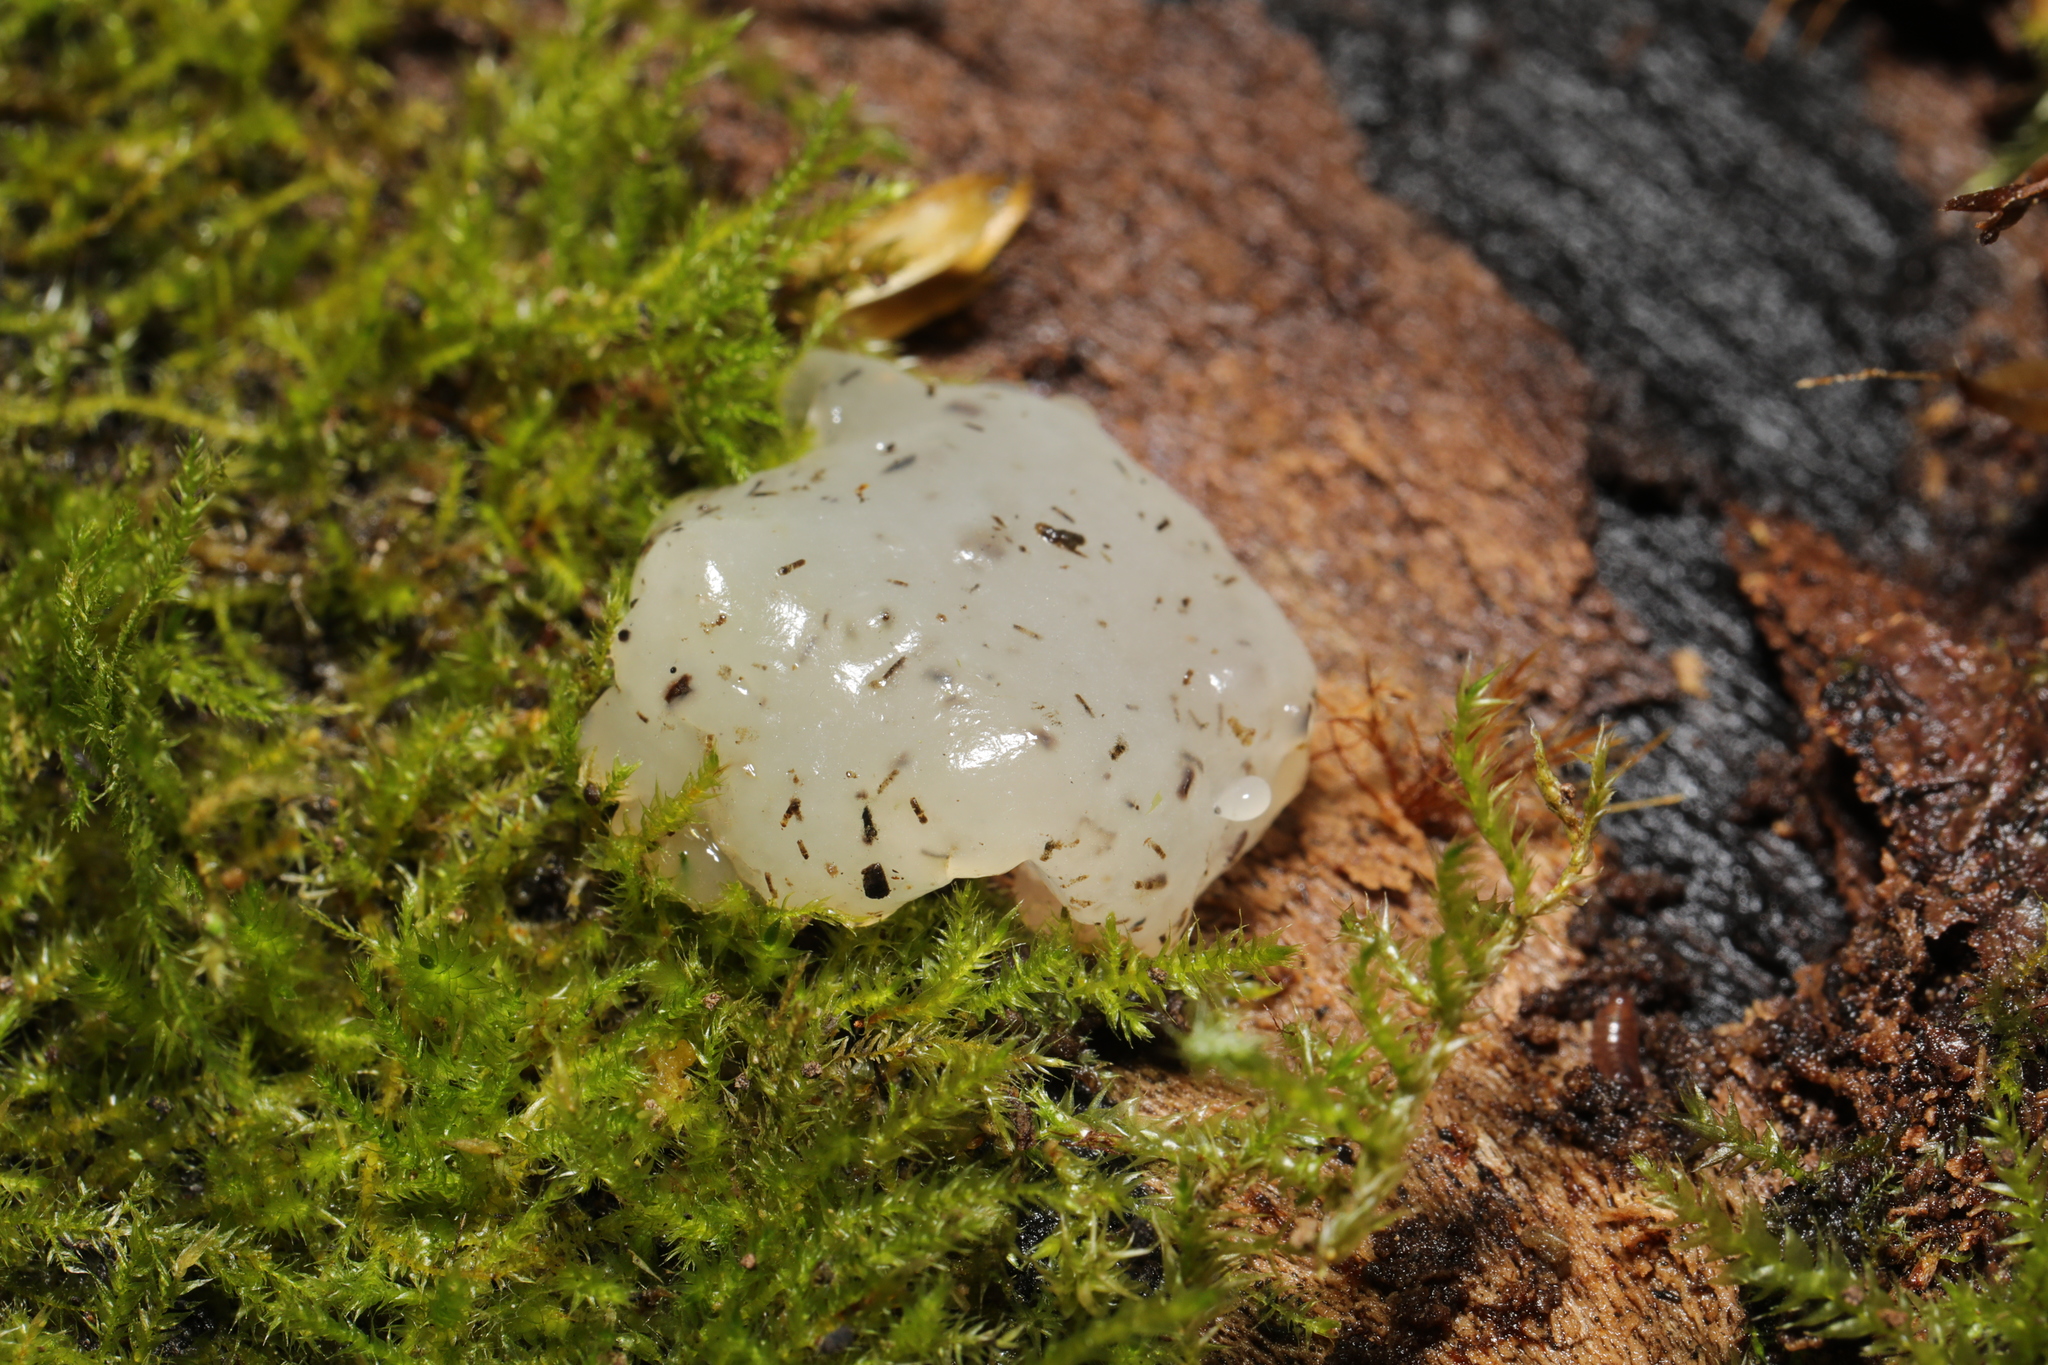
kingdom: Fungi
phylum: Basidiomycota
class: Agaricomycetes
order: Auriculariales
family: Hyaloriaceae
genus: Myxarium
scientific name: Myxarium nucleatum
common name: Crystal brain fungus
